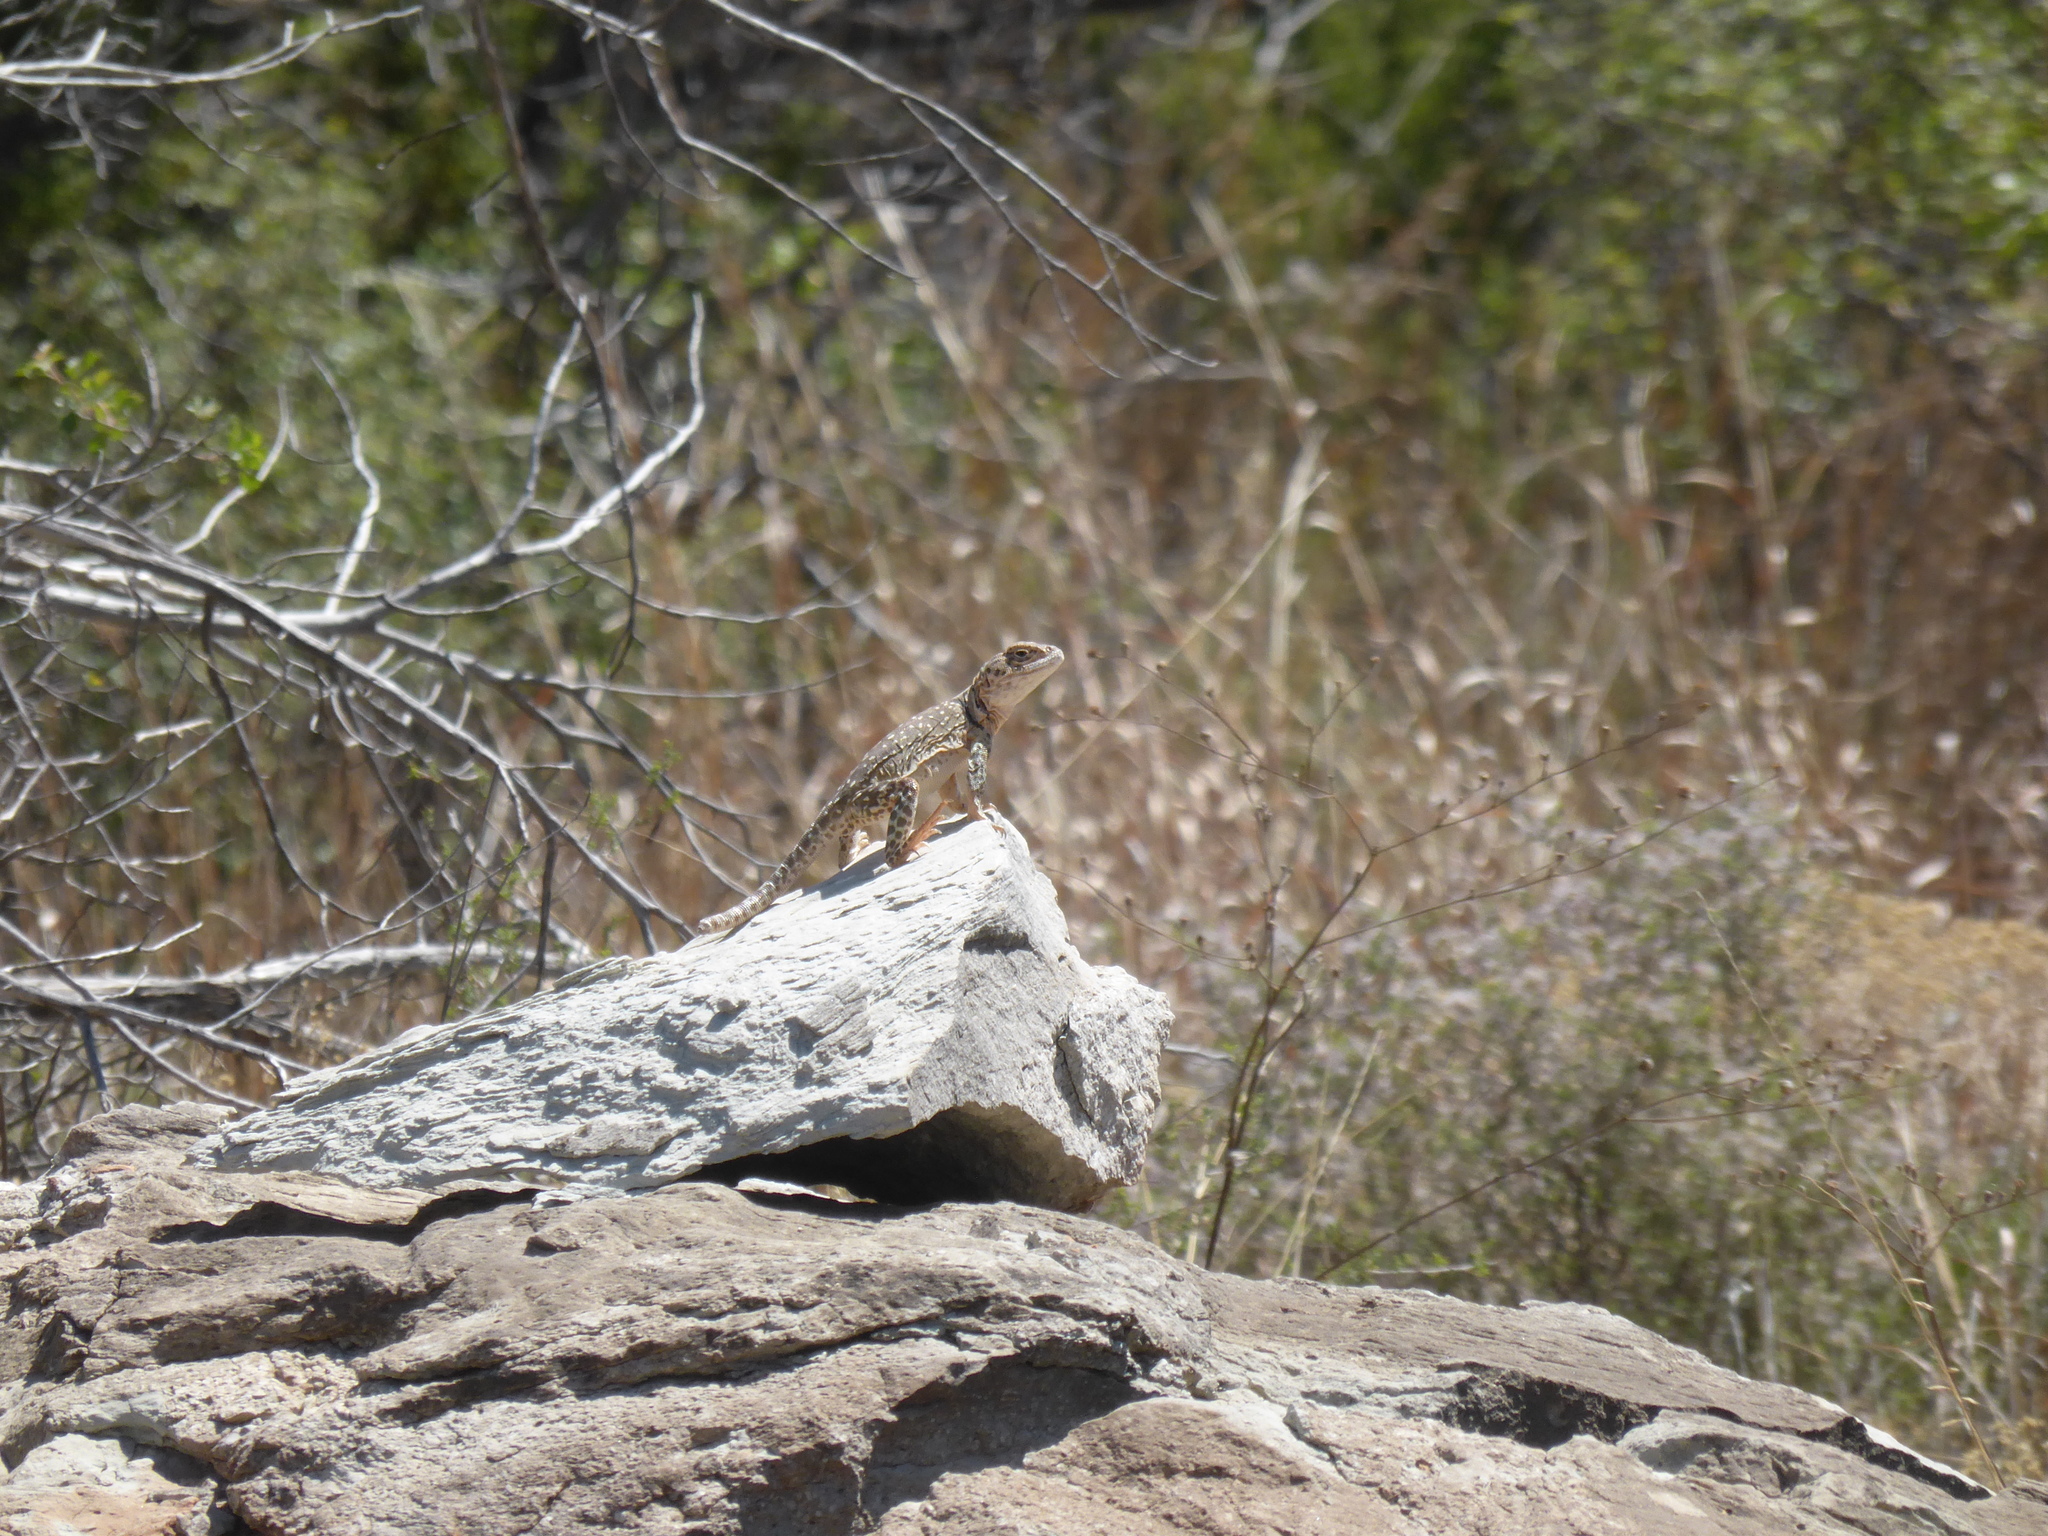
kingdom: Animalia
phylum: Chordata
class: Squamata
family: Crotaphytidae
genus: Crotaphytus
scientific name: Crotaphytus collaris
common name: Collared lizard
